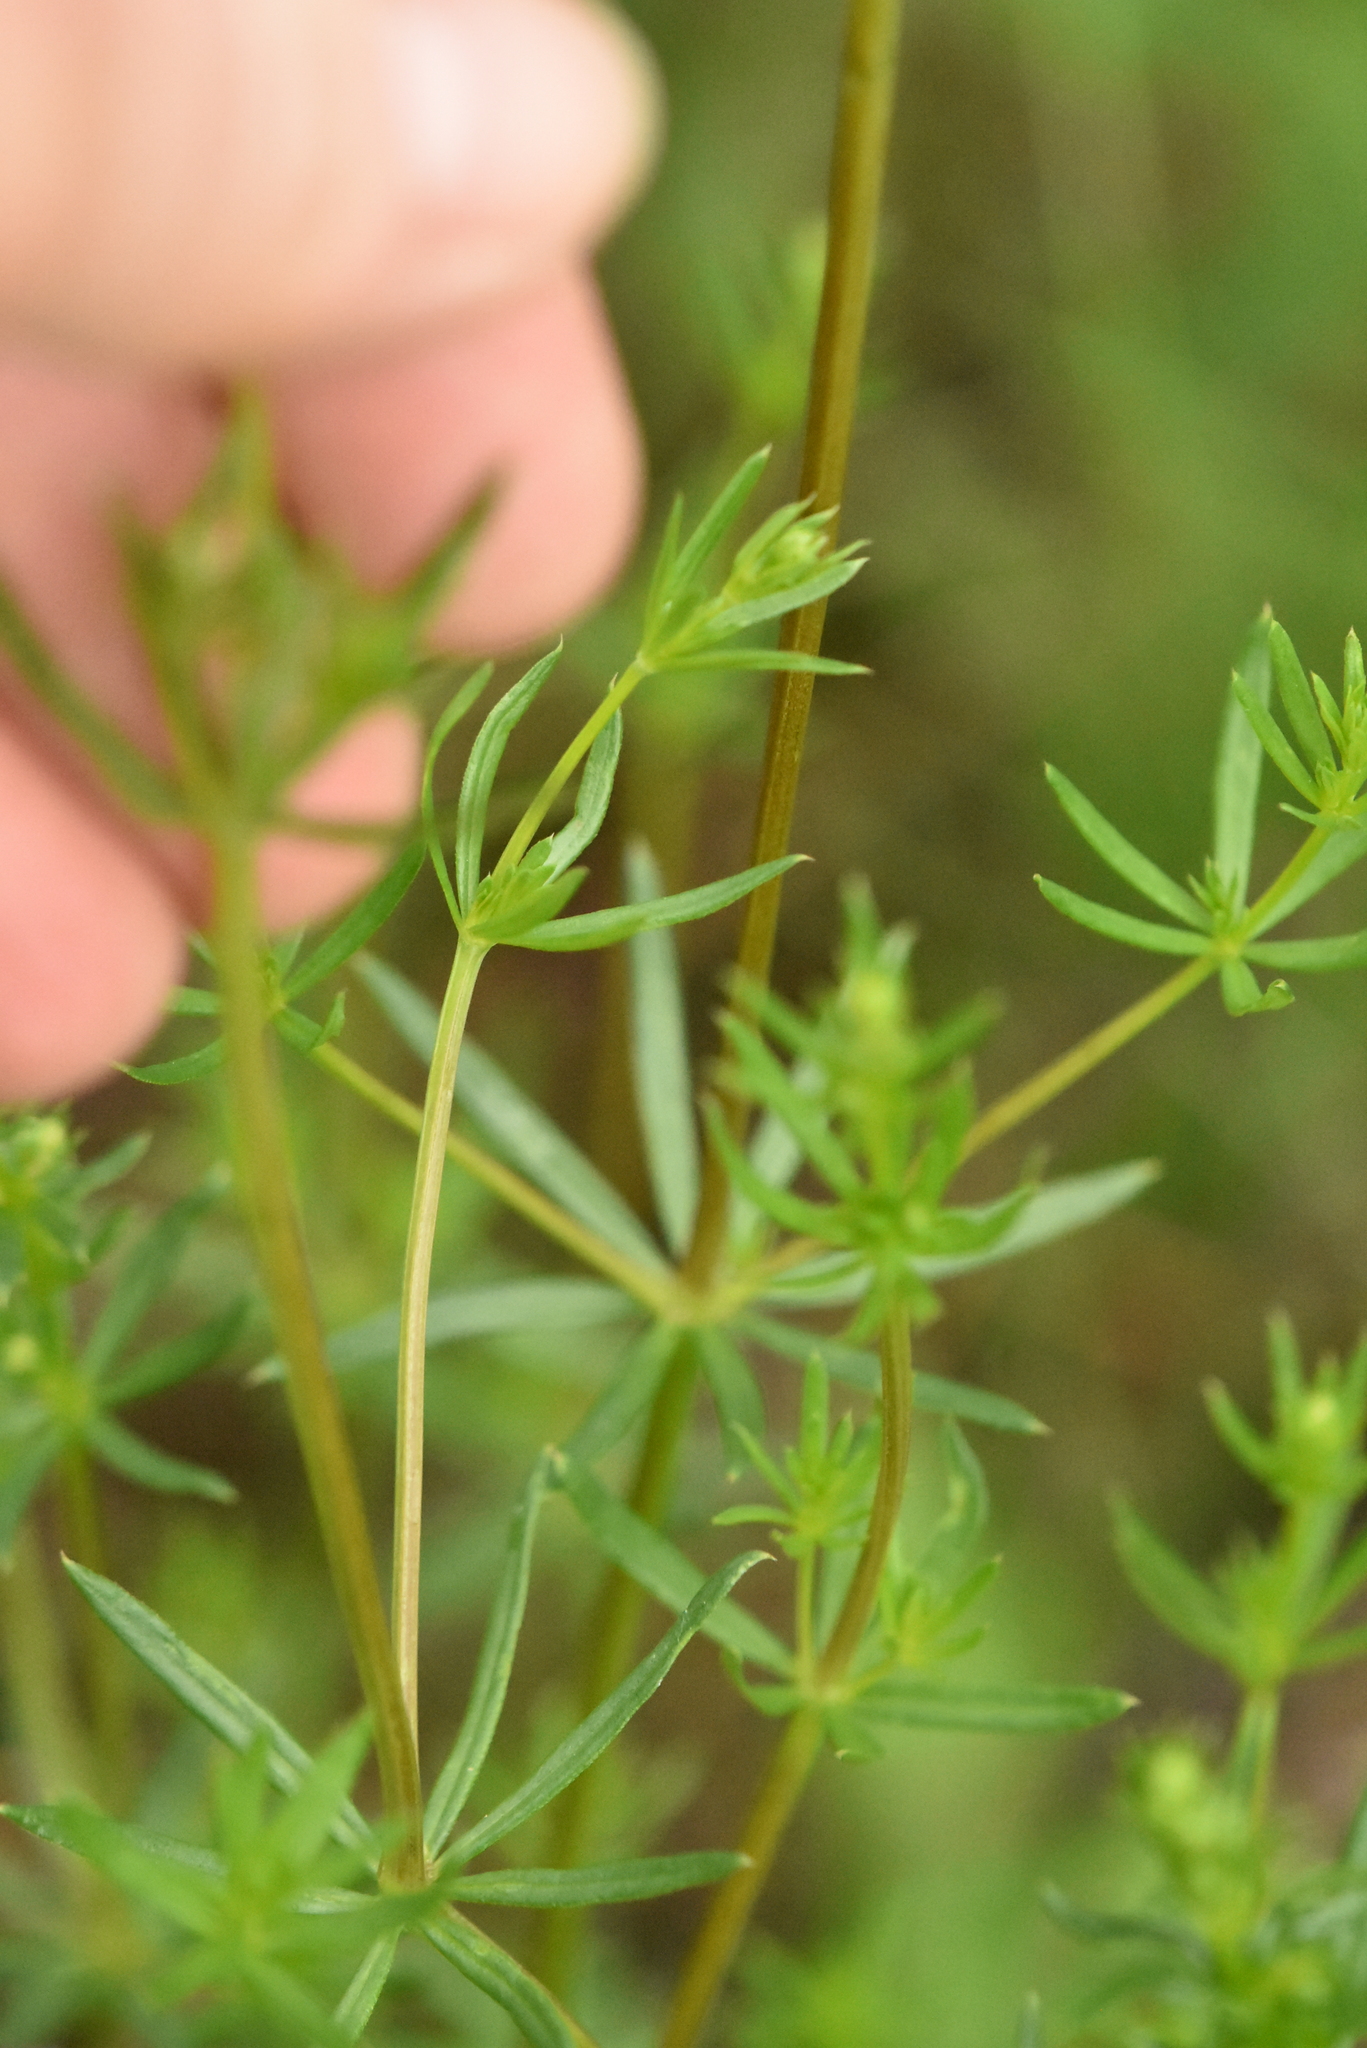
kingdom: Plantae
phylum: Tracheophyta
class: Magnoliopsida
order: Gentianales
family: Rubiaceae
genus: Galium
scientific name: Galium mollugo
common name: Hedge bedstraw
